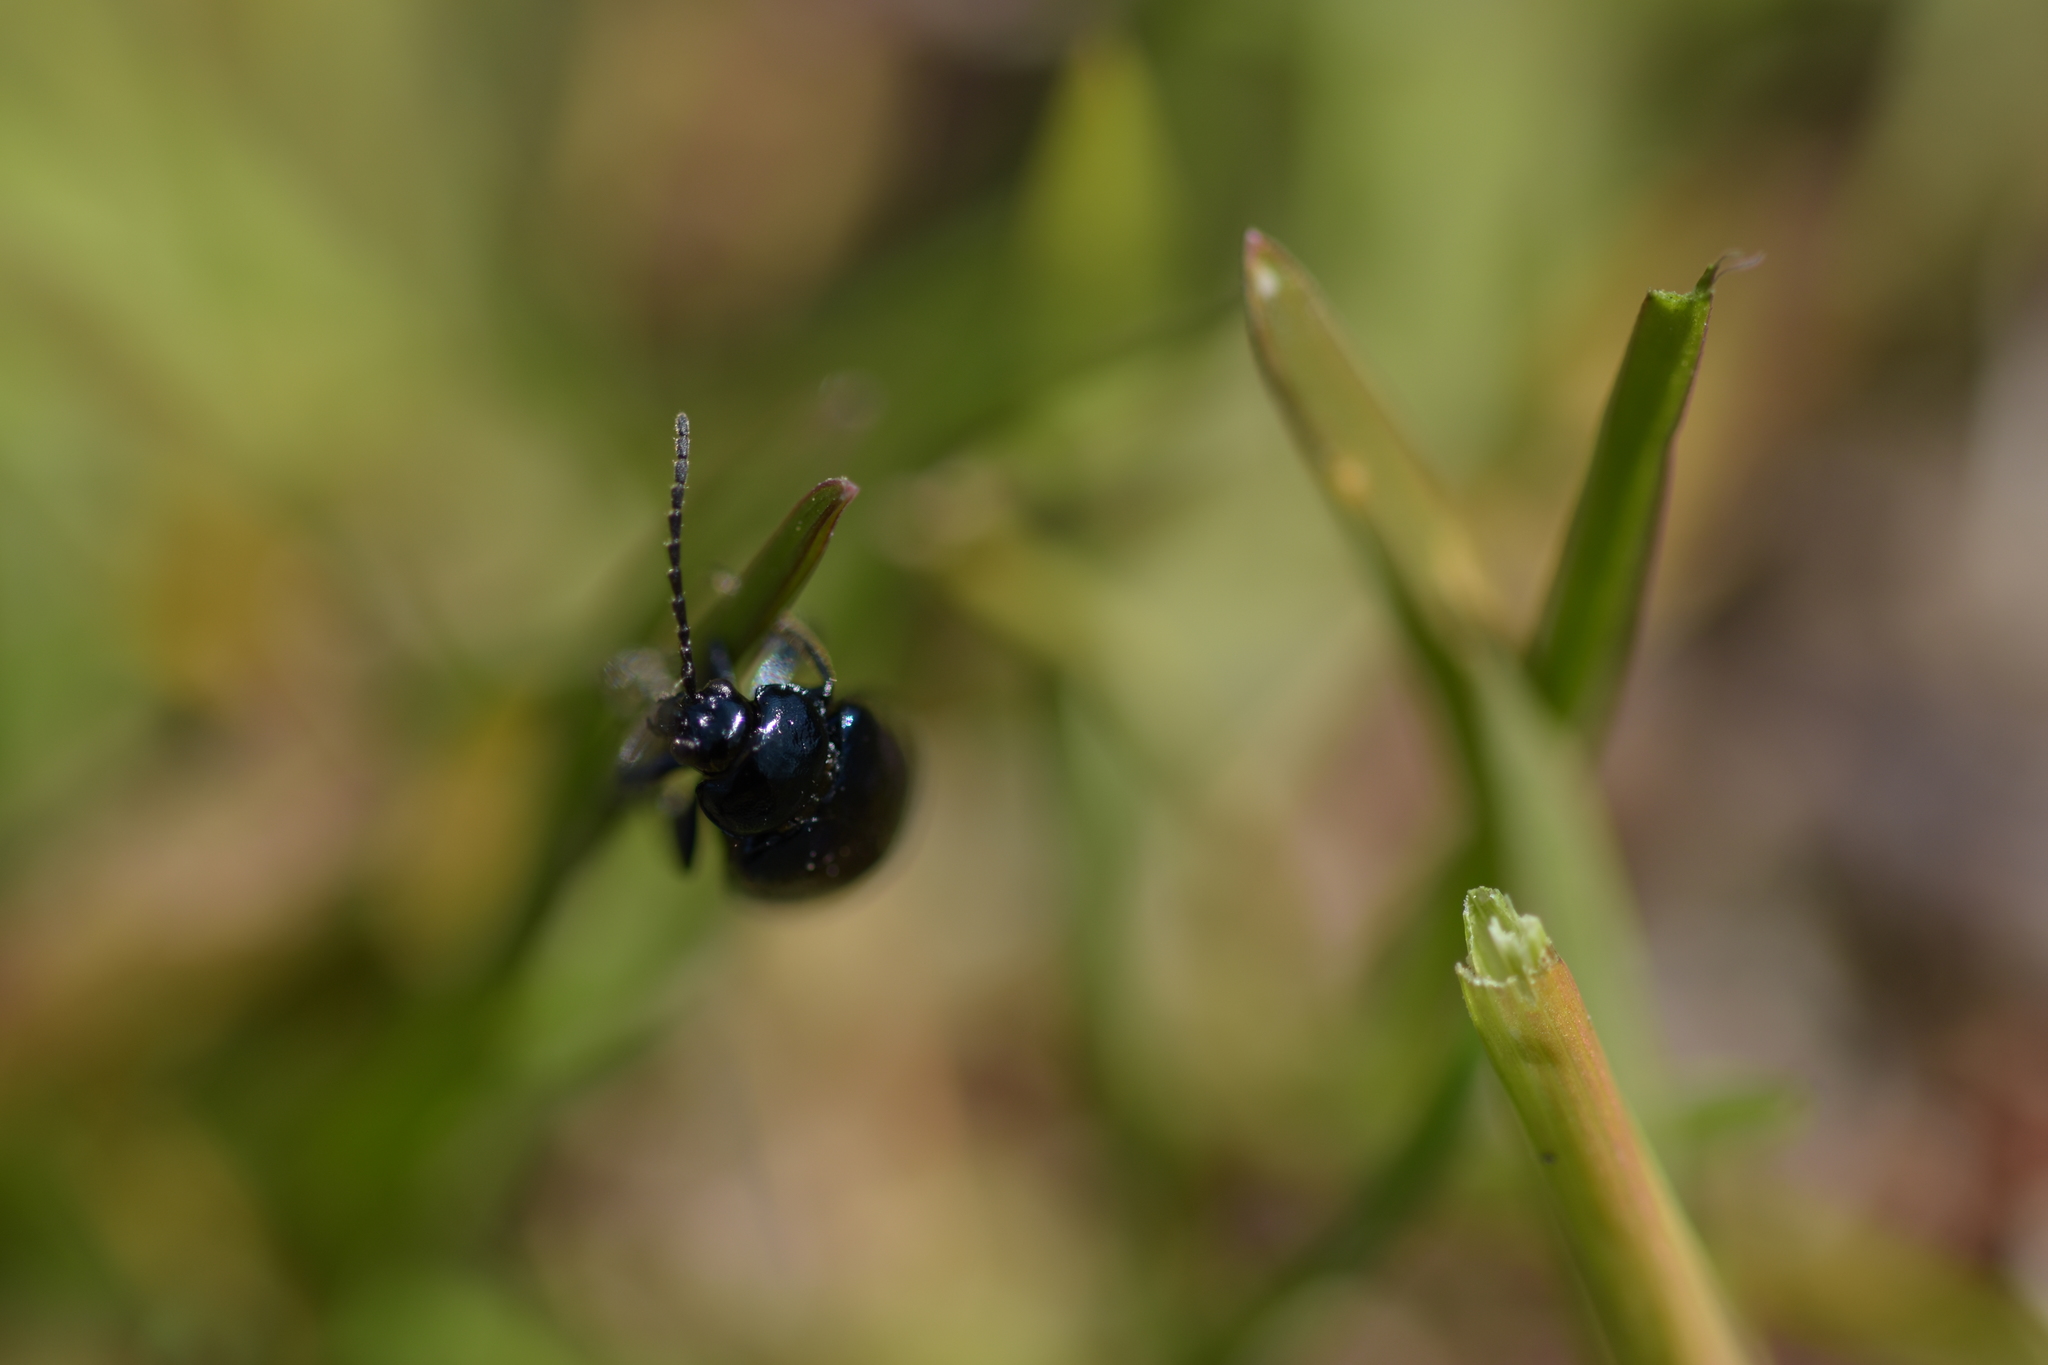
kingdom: Animalia
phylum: Arthropoda
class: Insecta
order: Coleoptera
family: Chrysomelidae
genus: Agelastica
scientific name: Agelastica alni
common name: Alder leaf beetle
